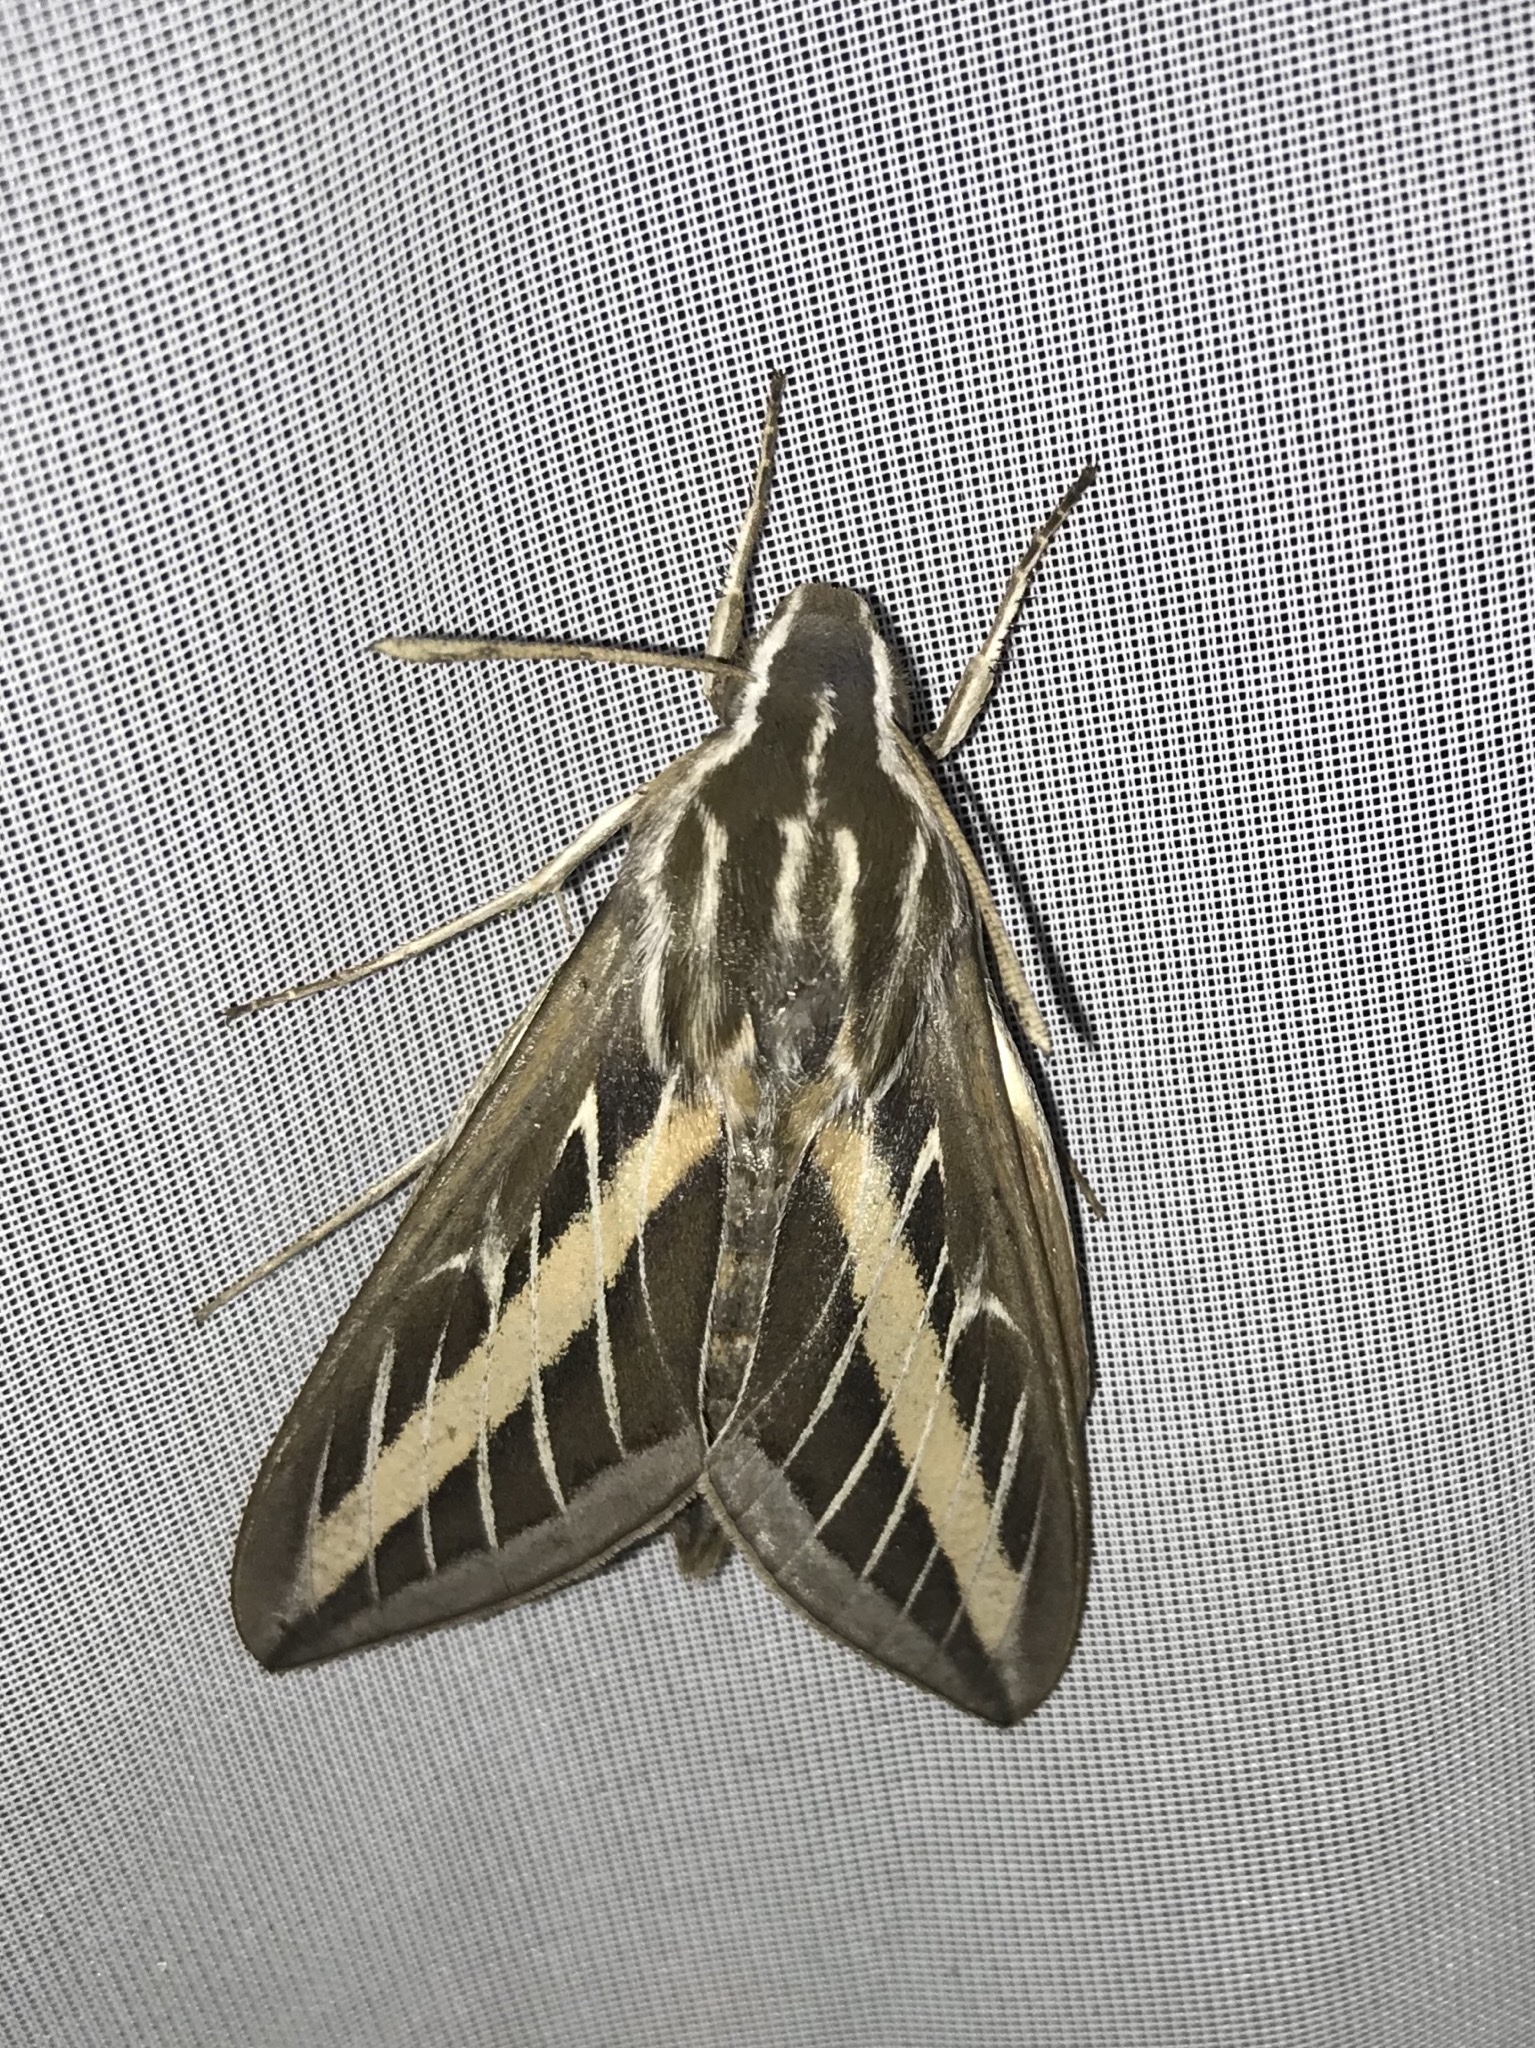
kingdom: Animalia
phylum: Arthropoda
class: Insecta
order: Lepidoptera
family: Sphingidae
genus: Hyles
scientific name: Hyles lineata
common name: White-lined sphinx
